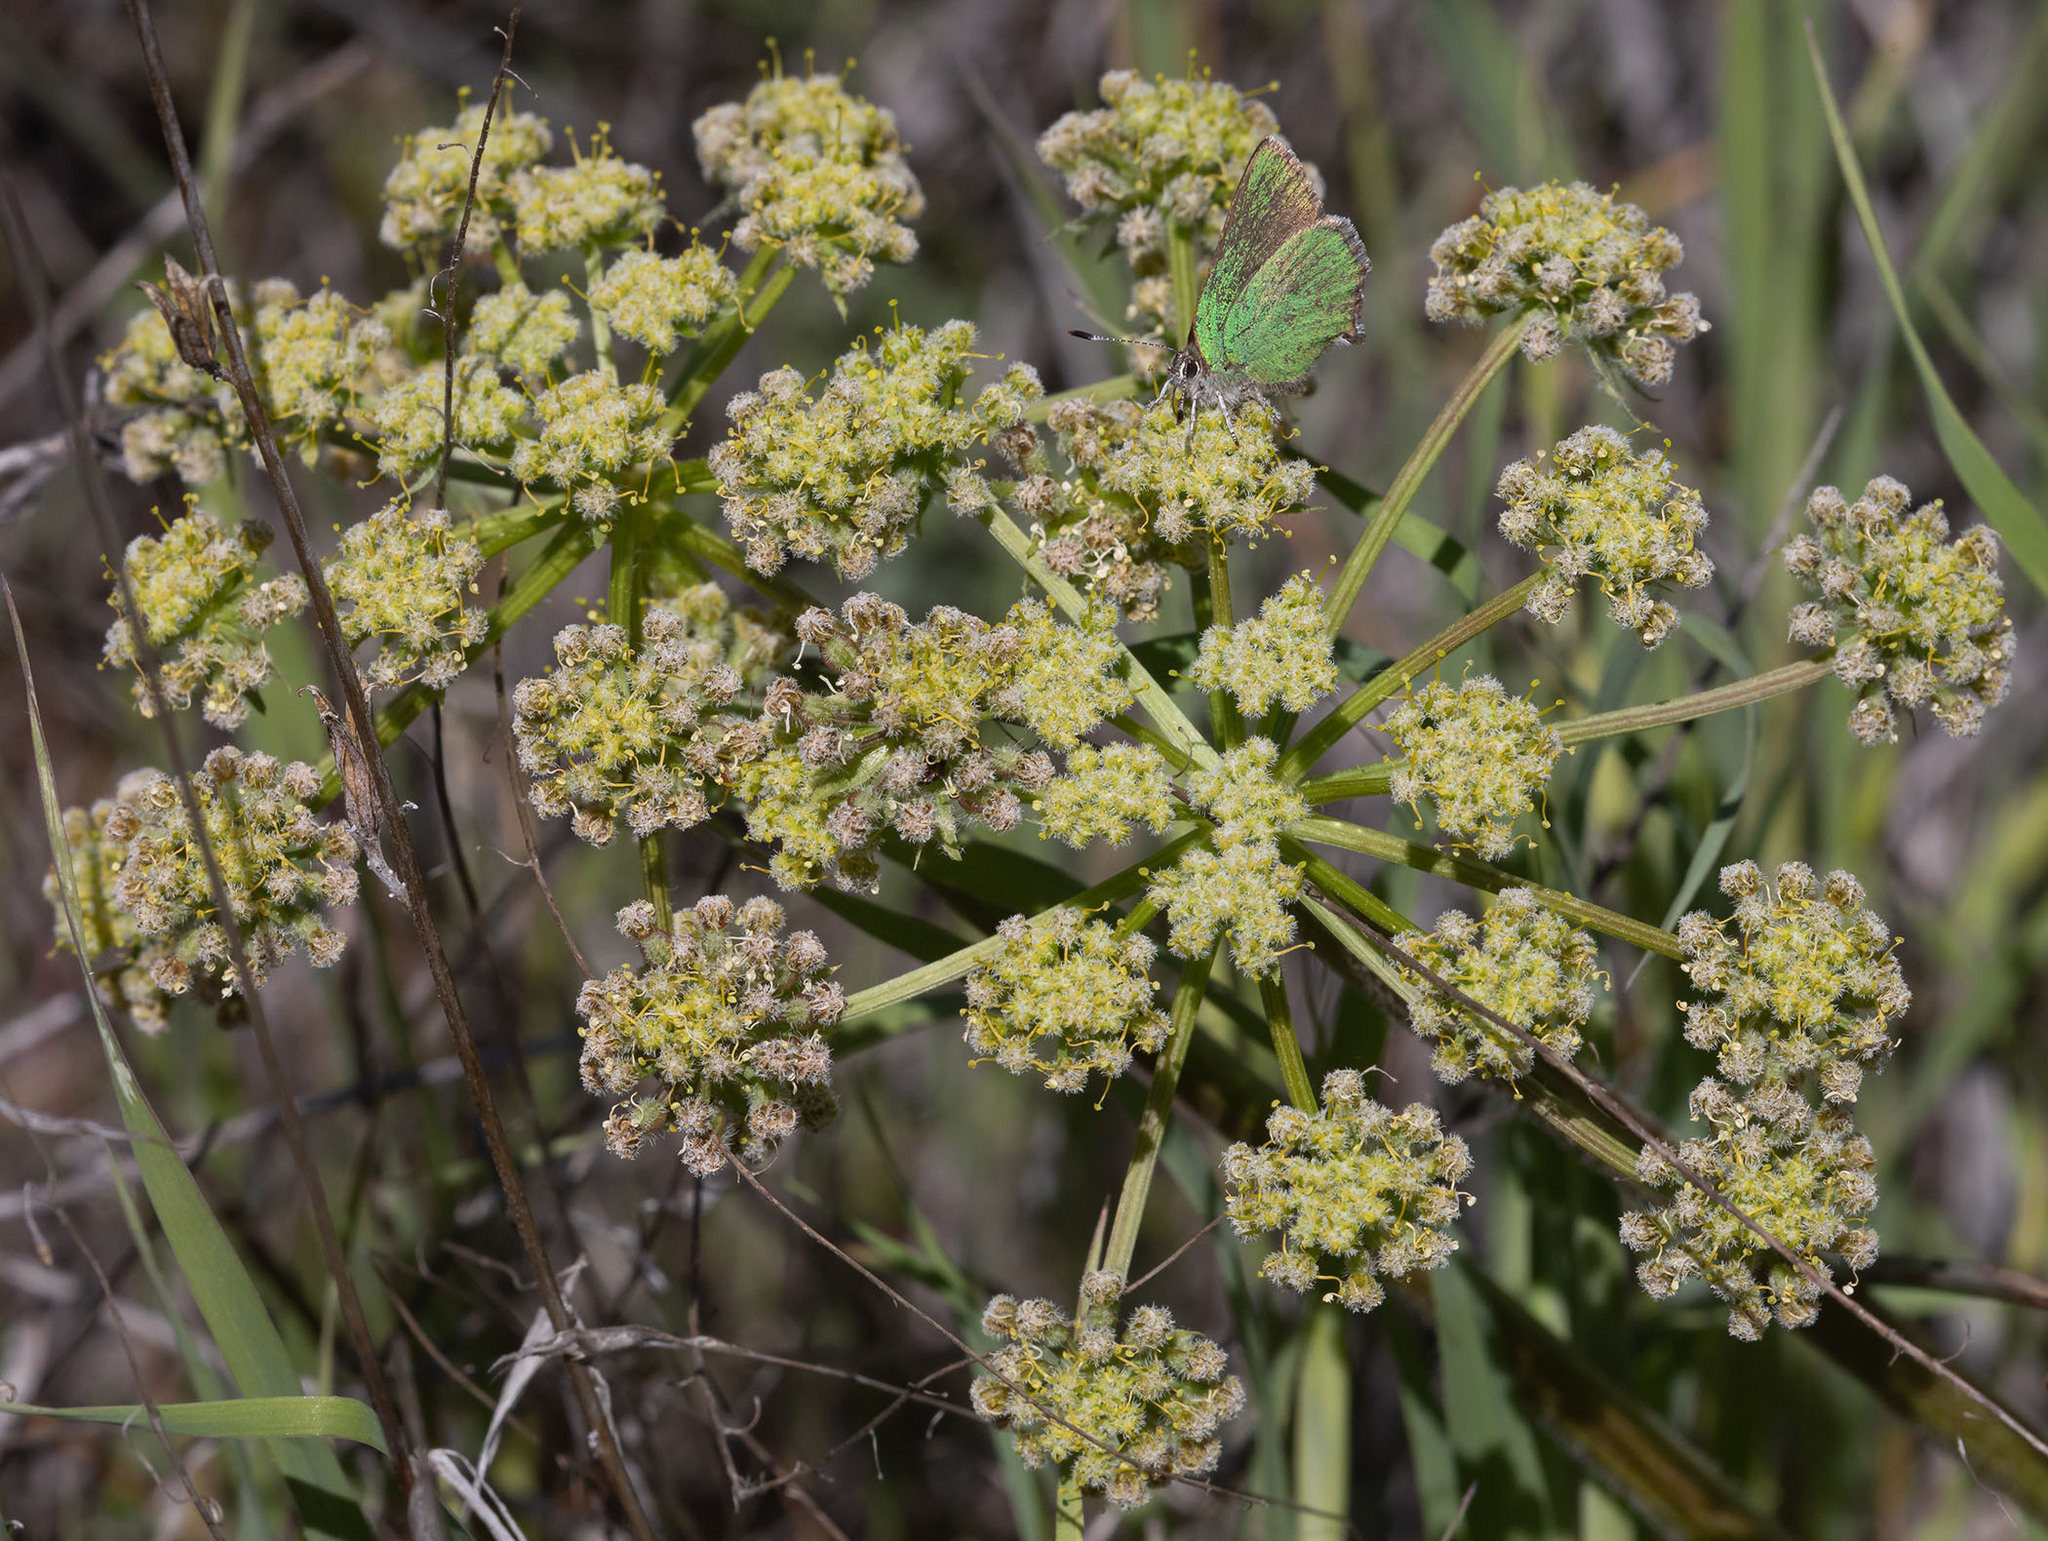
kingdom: Animalia
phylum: Arthropoda
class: Insecta
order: Lepidoptera
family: Lycaenidae
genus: Callophrys
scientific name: Callophrys dumetorum
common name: Bramble hairstreak
